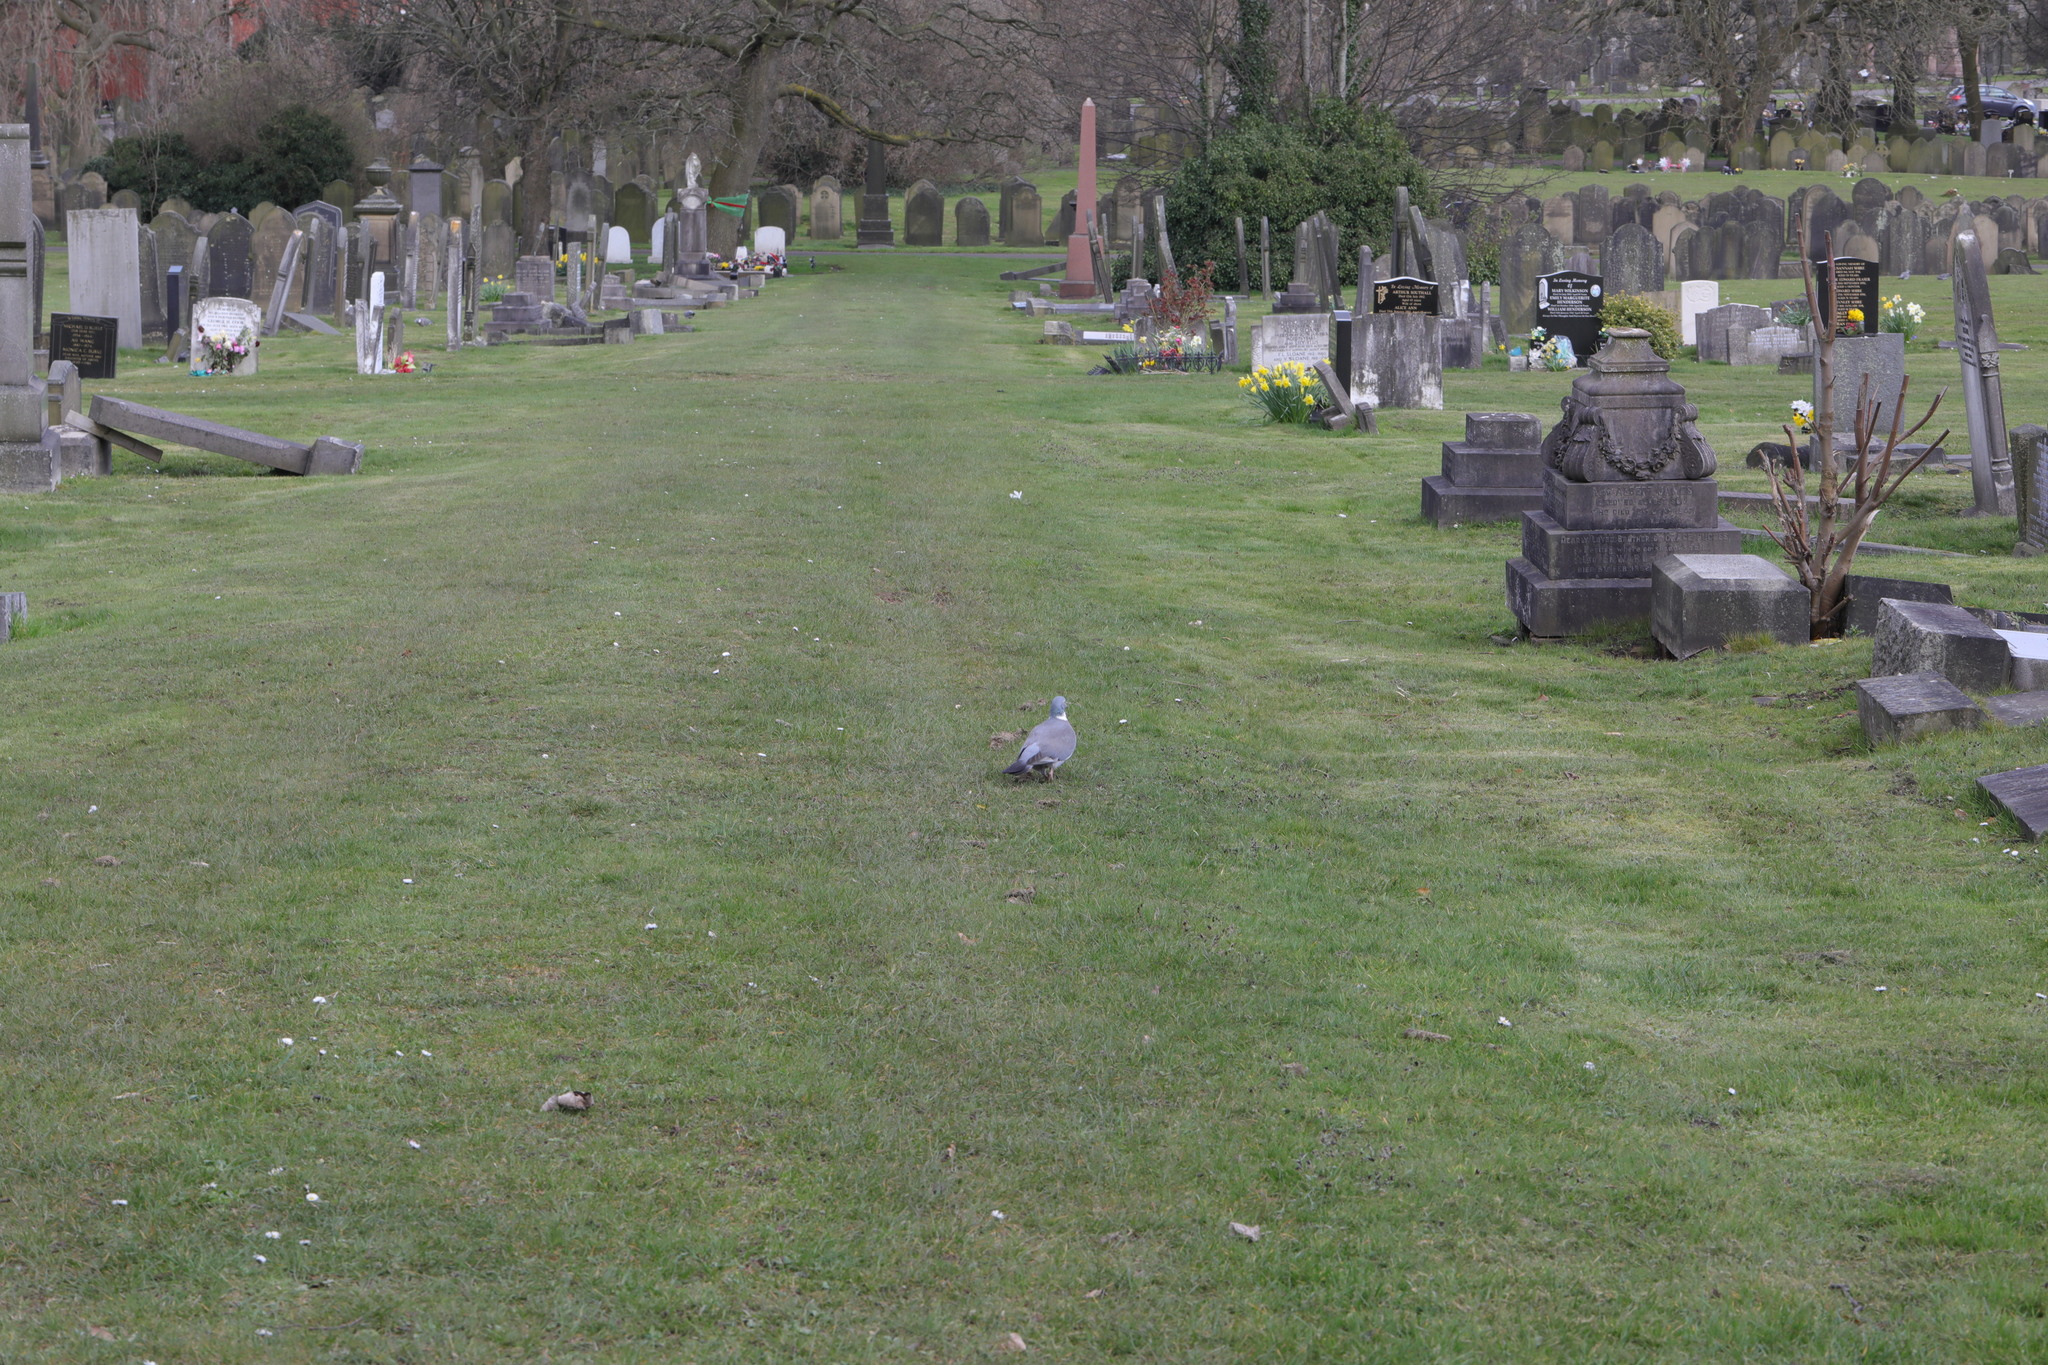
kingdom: Animalia
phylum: Chordata
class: Aves
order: Columbiformes
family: Columbidae
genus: Columba
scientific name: Columba palumbus
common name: Common wood pigeon
